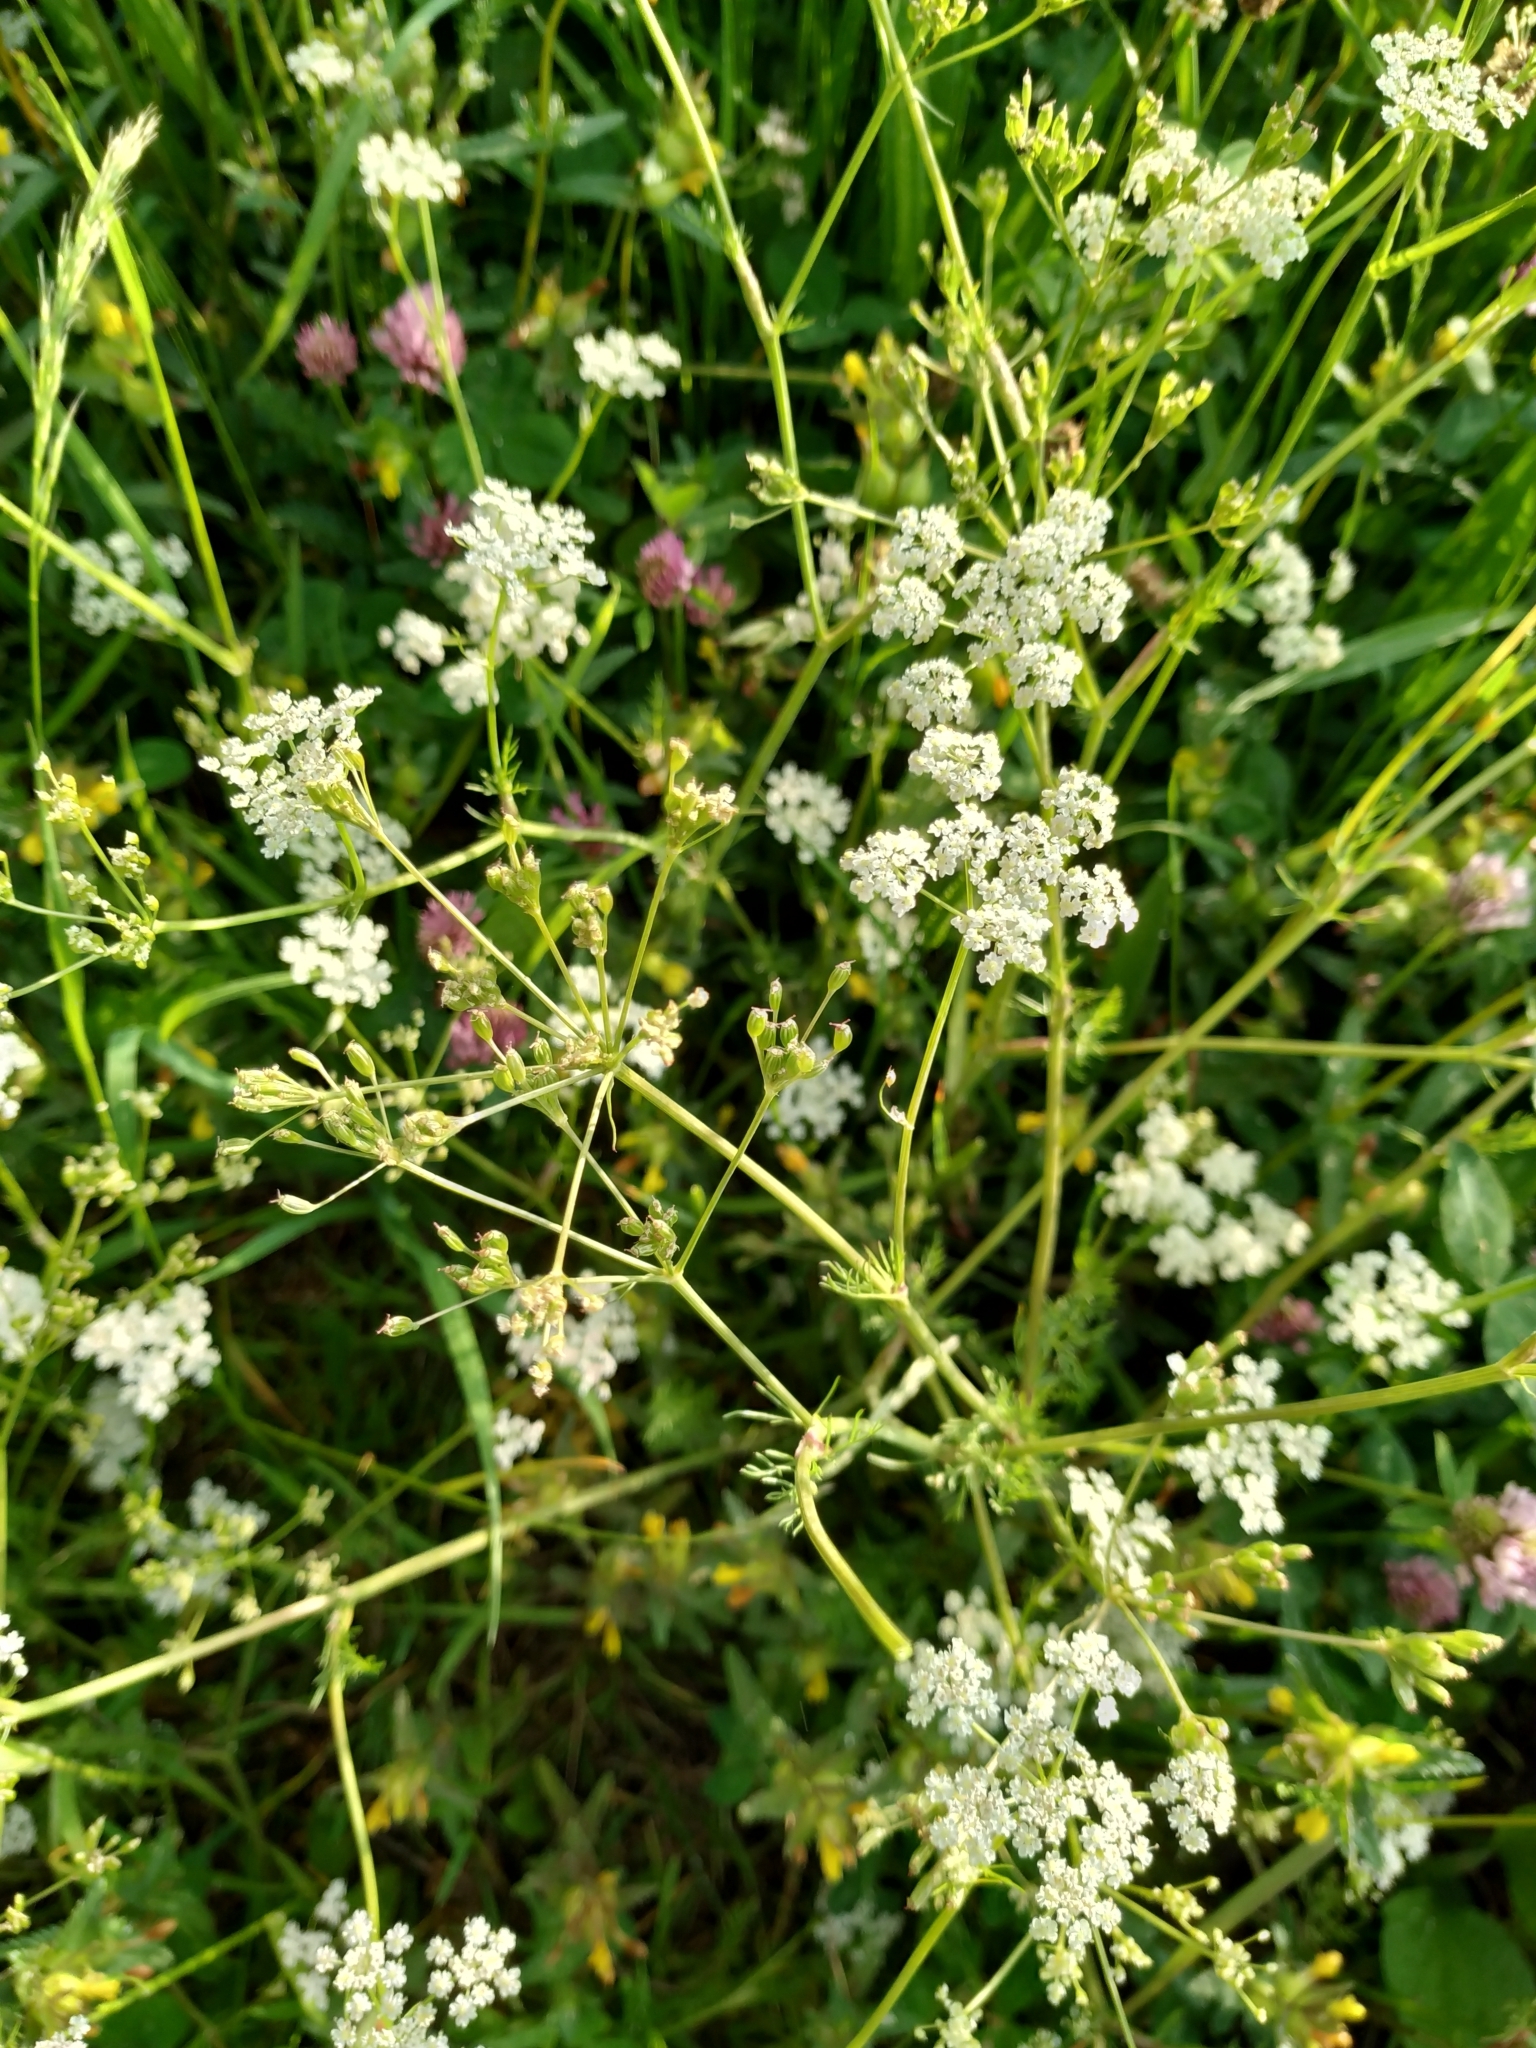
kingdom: Plantae
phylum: Tracheophyta
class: Magnoliopsida
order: Apiales
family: Apiaceae
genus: Carum
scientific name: Carum carvi
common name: Caraway
